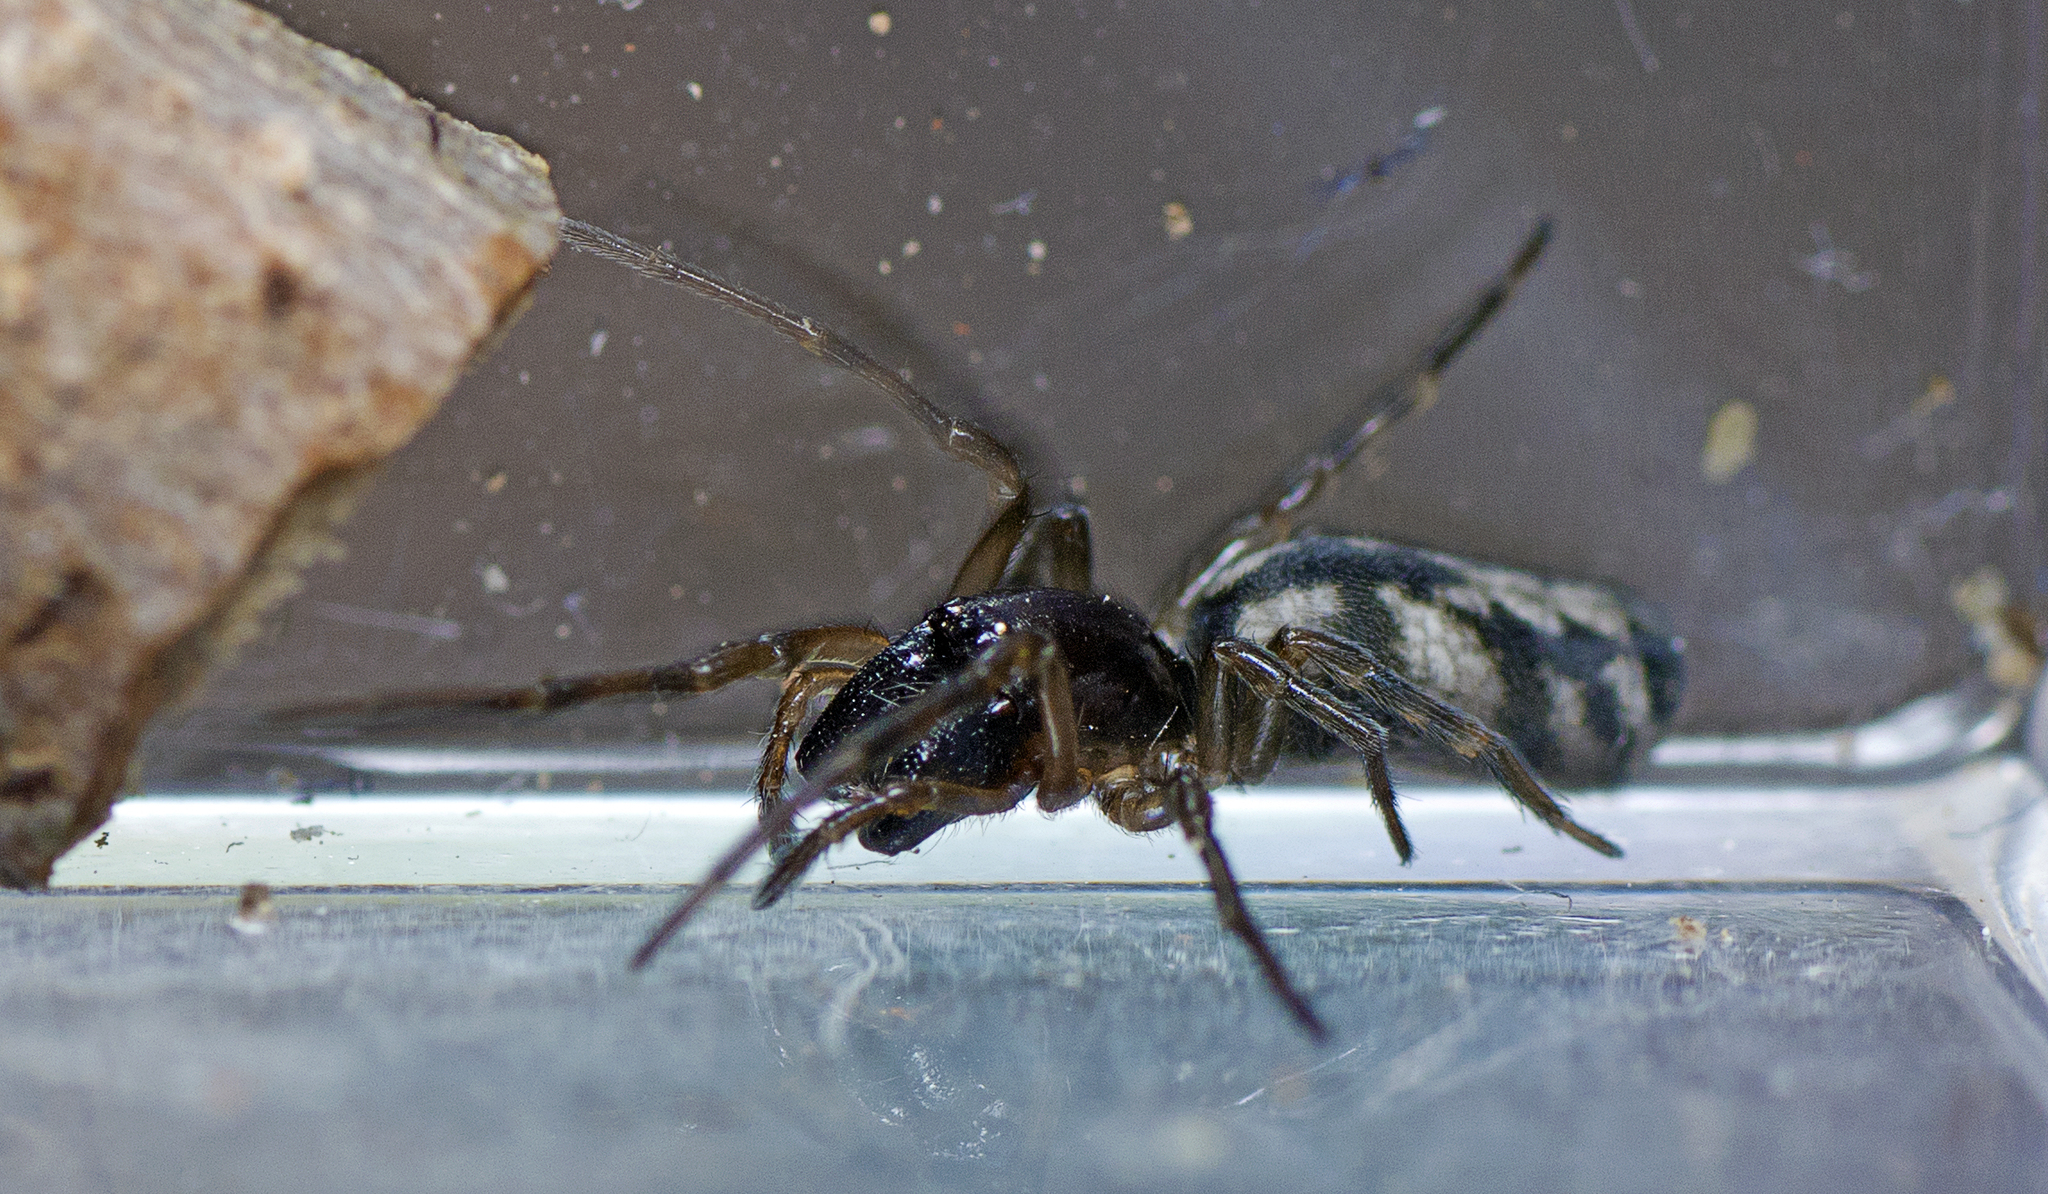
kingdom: Animalia
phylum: Arthropoda
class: Arachnida
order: Araneae
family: Desidae
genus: Paramatachia
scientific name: Paramatachia decorata
